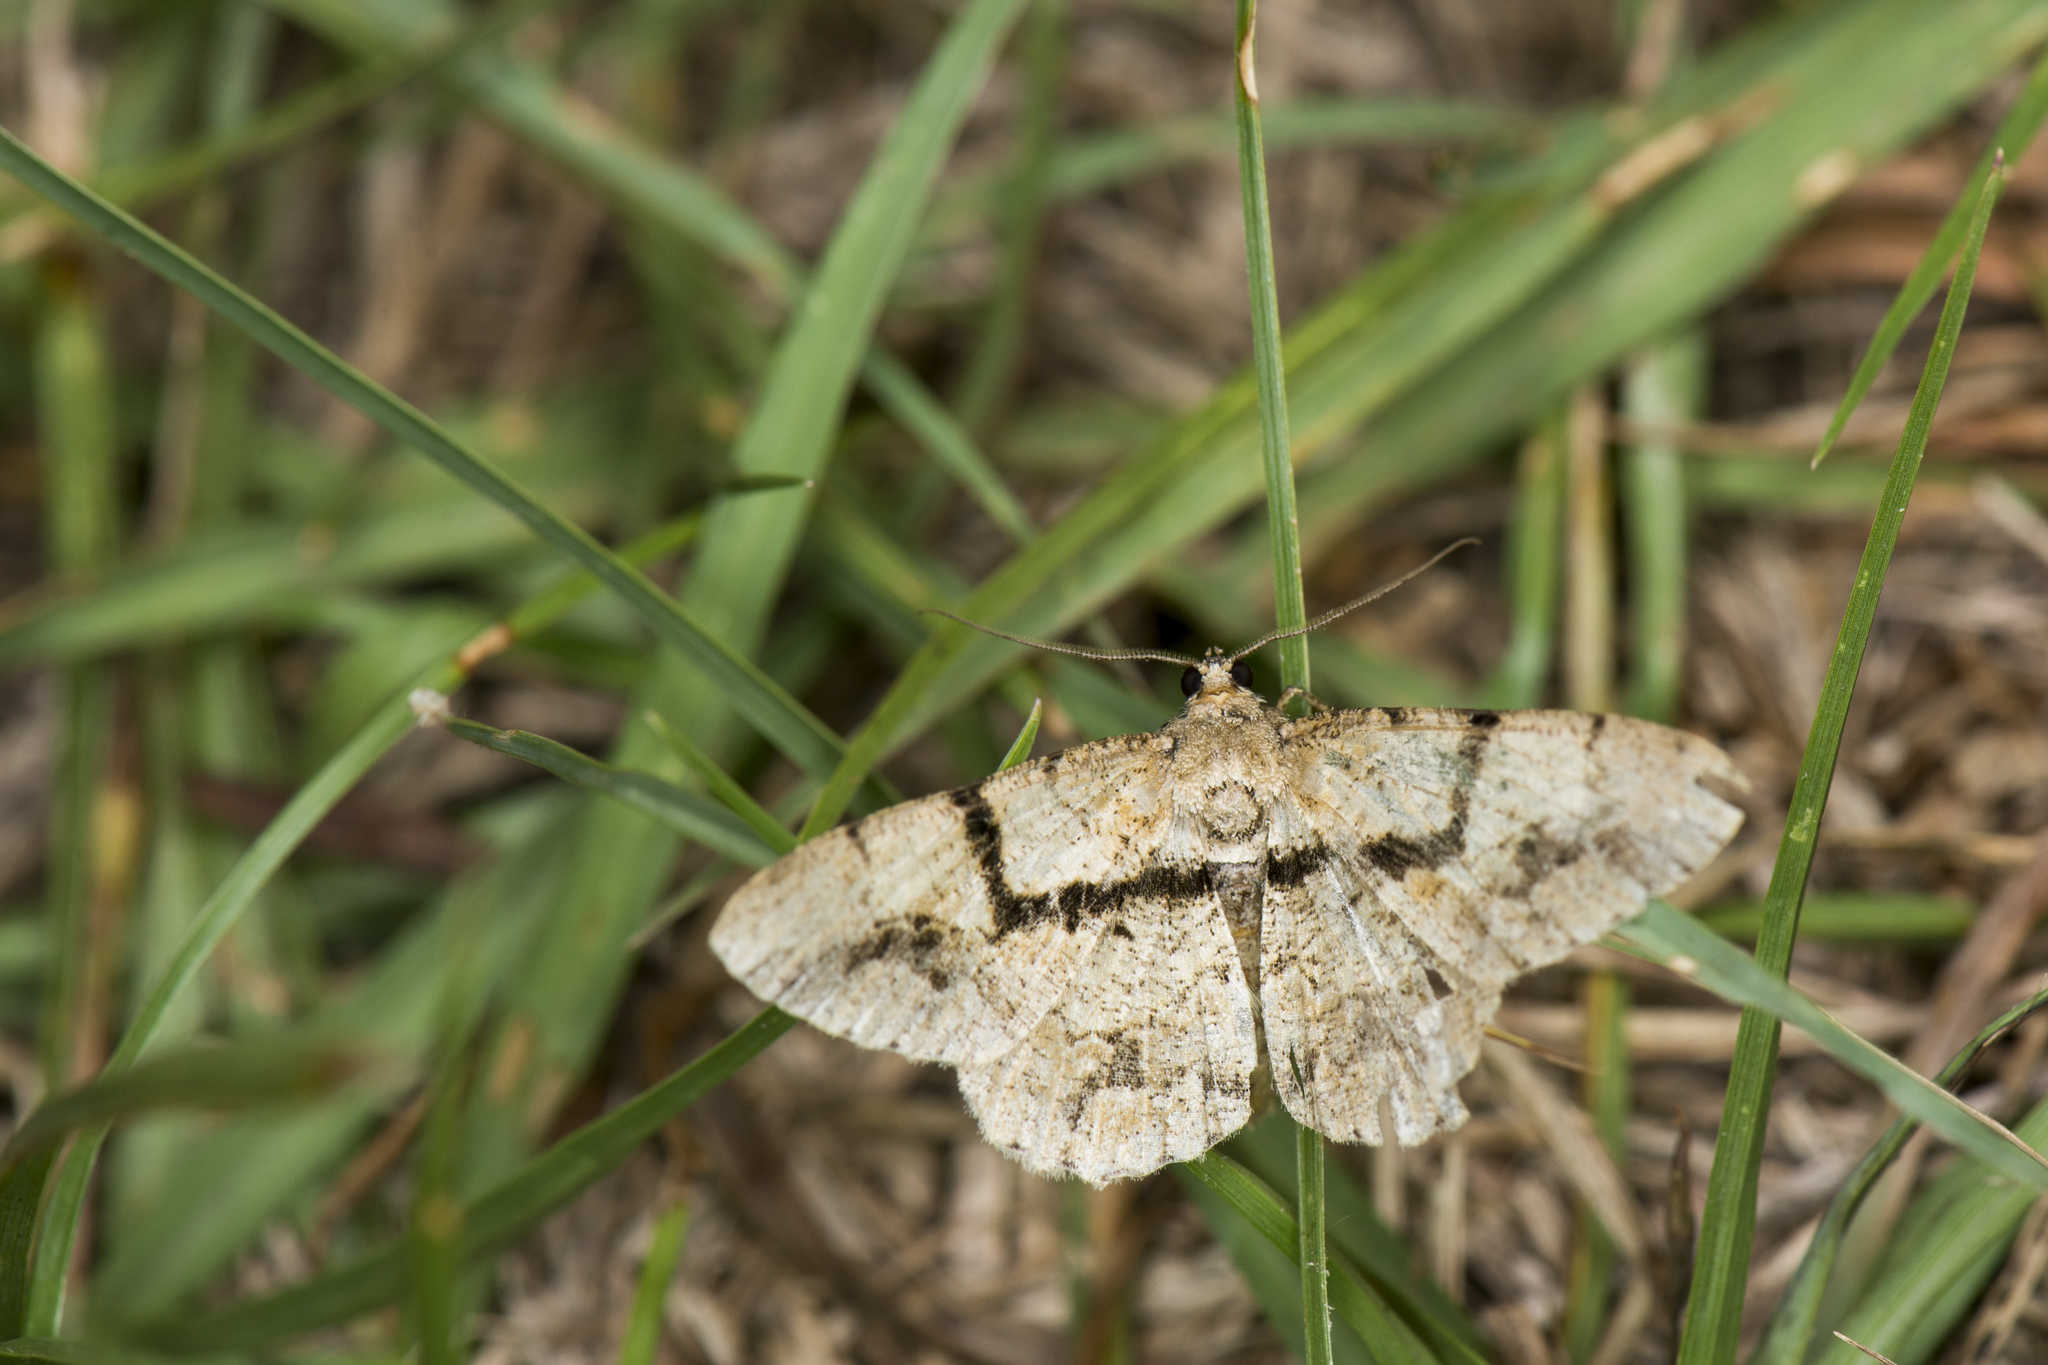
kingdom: Animalia
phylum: Arthropoda
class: Insecta
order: Lepidoptera
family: Geometridae
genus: Heterarmia
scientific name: Heterarmia diorthogonia
